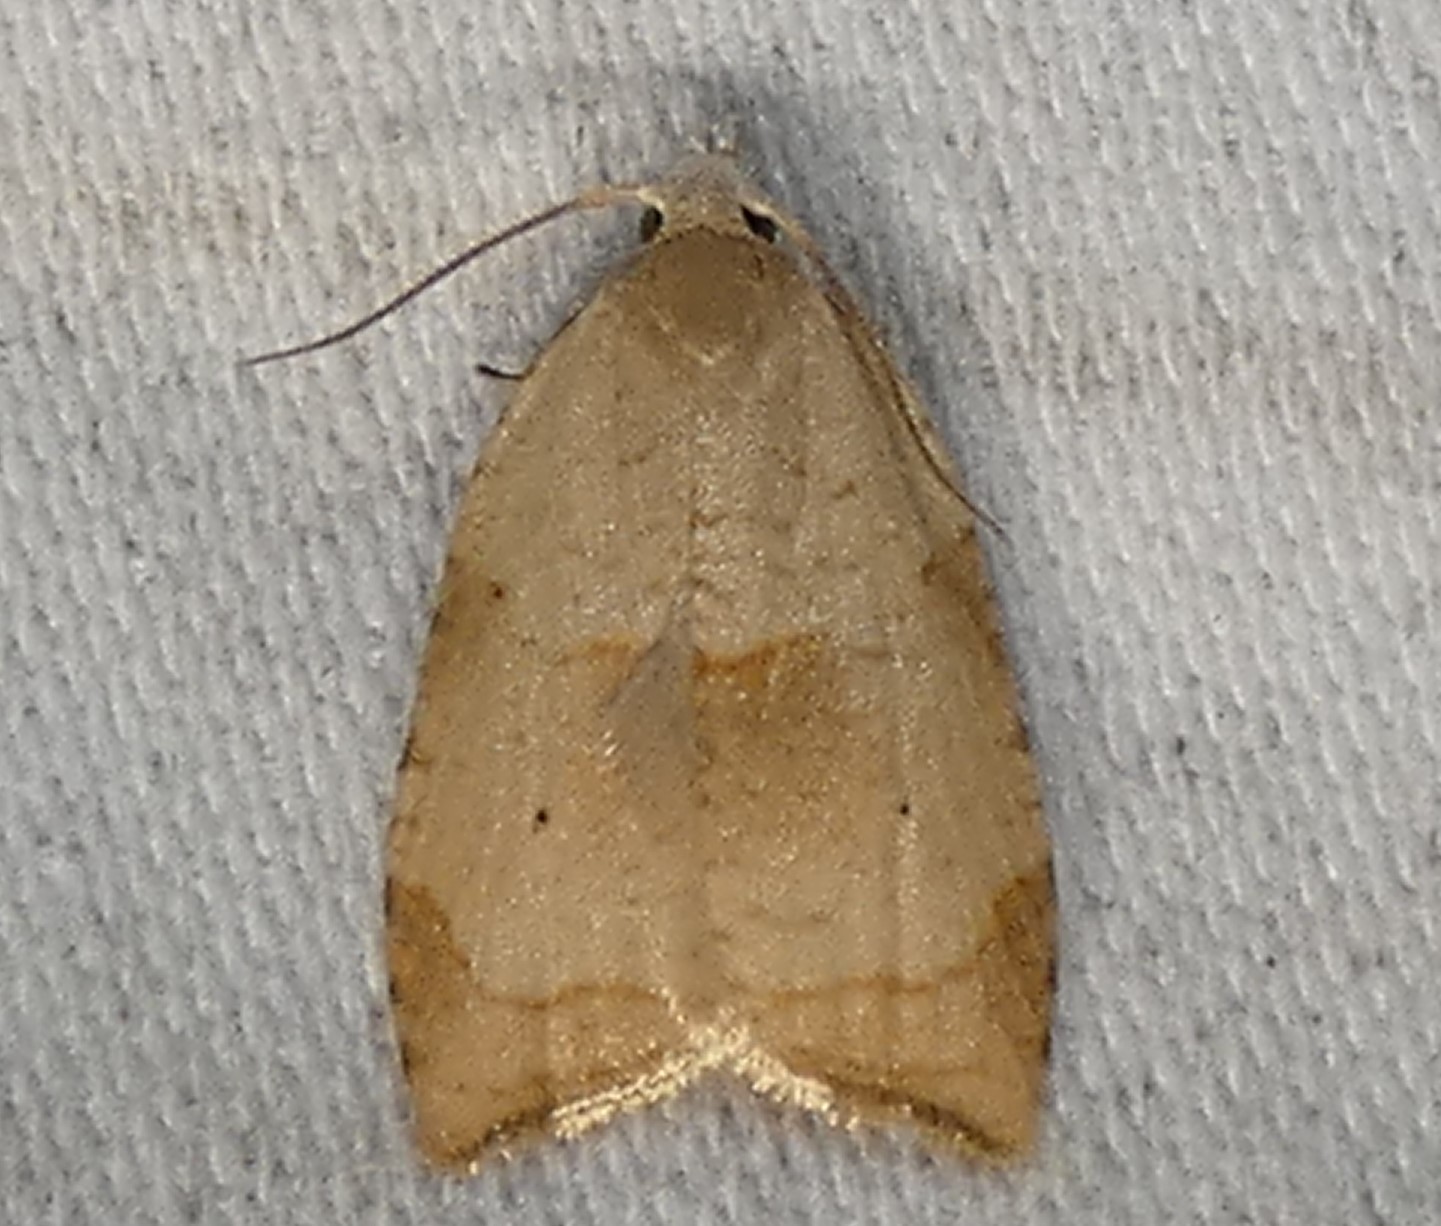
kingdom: Animalia
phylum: Arthropoda
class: Insecta
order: Lepidoptera
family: Tortricidae
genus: Coelostathma
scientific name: Coelostathma discopunctana
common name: Batman moth
